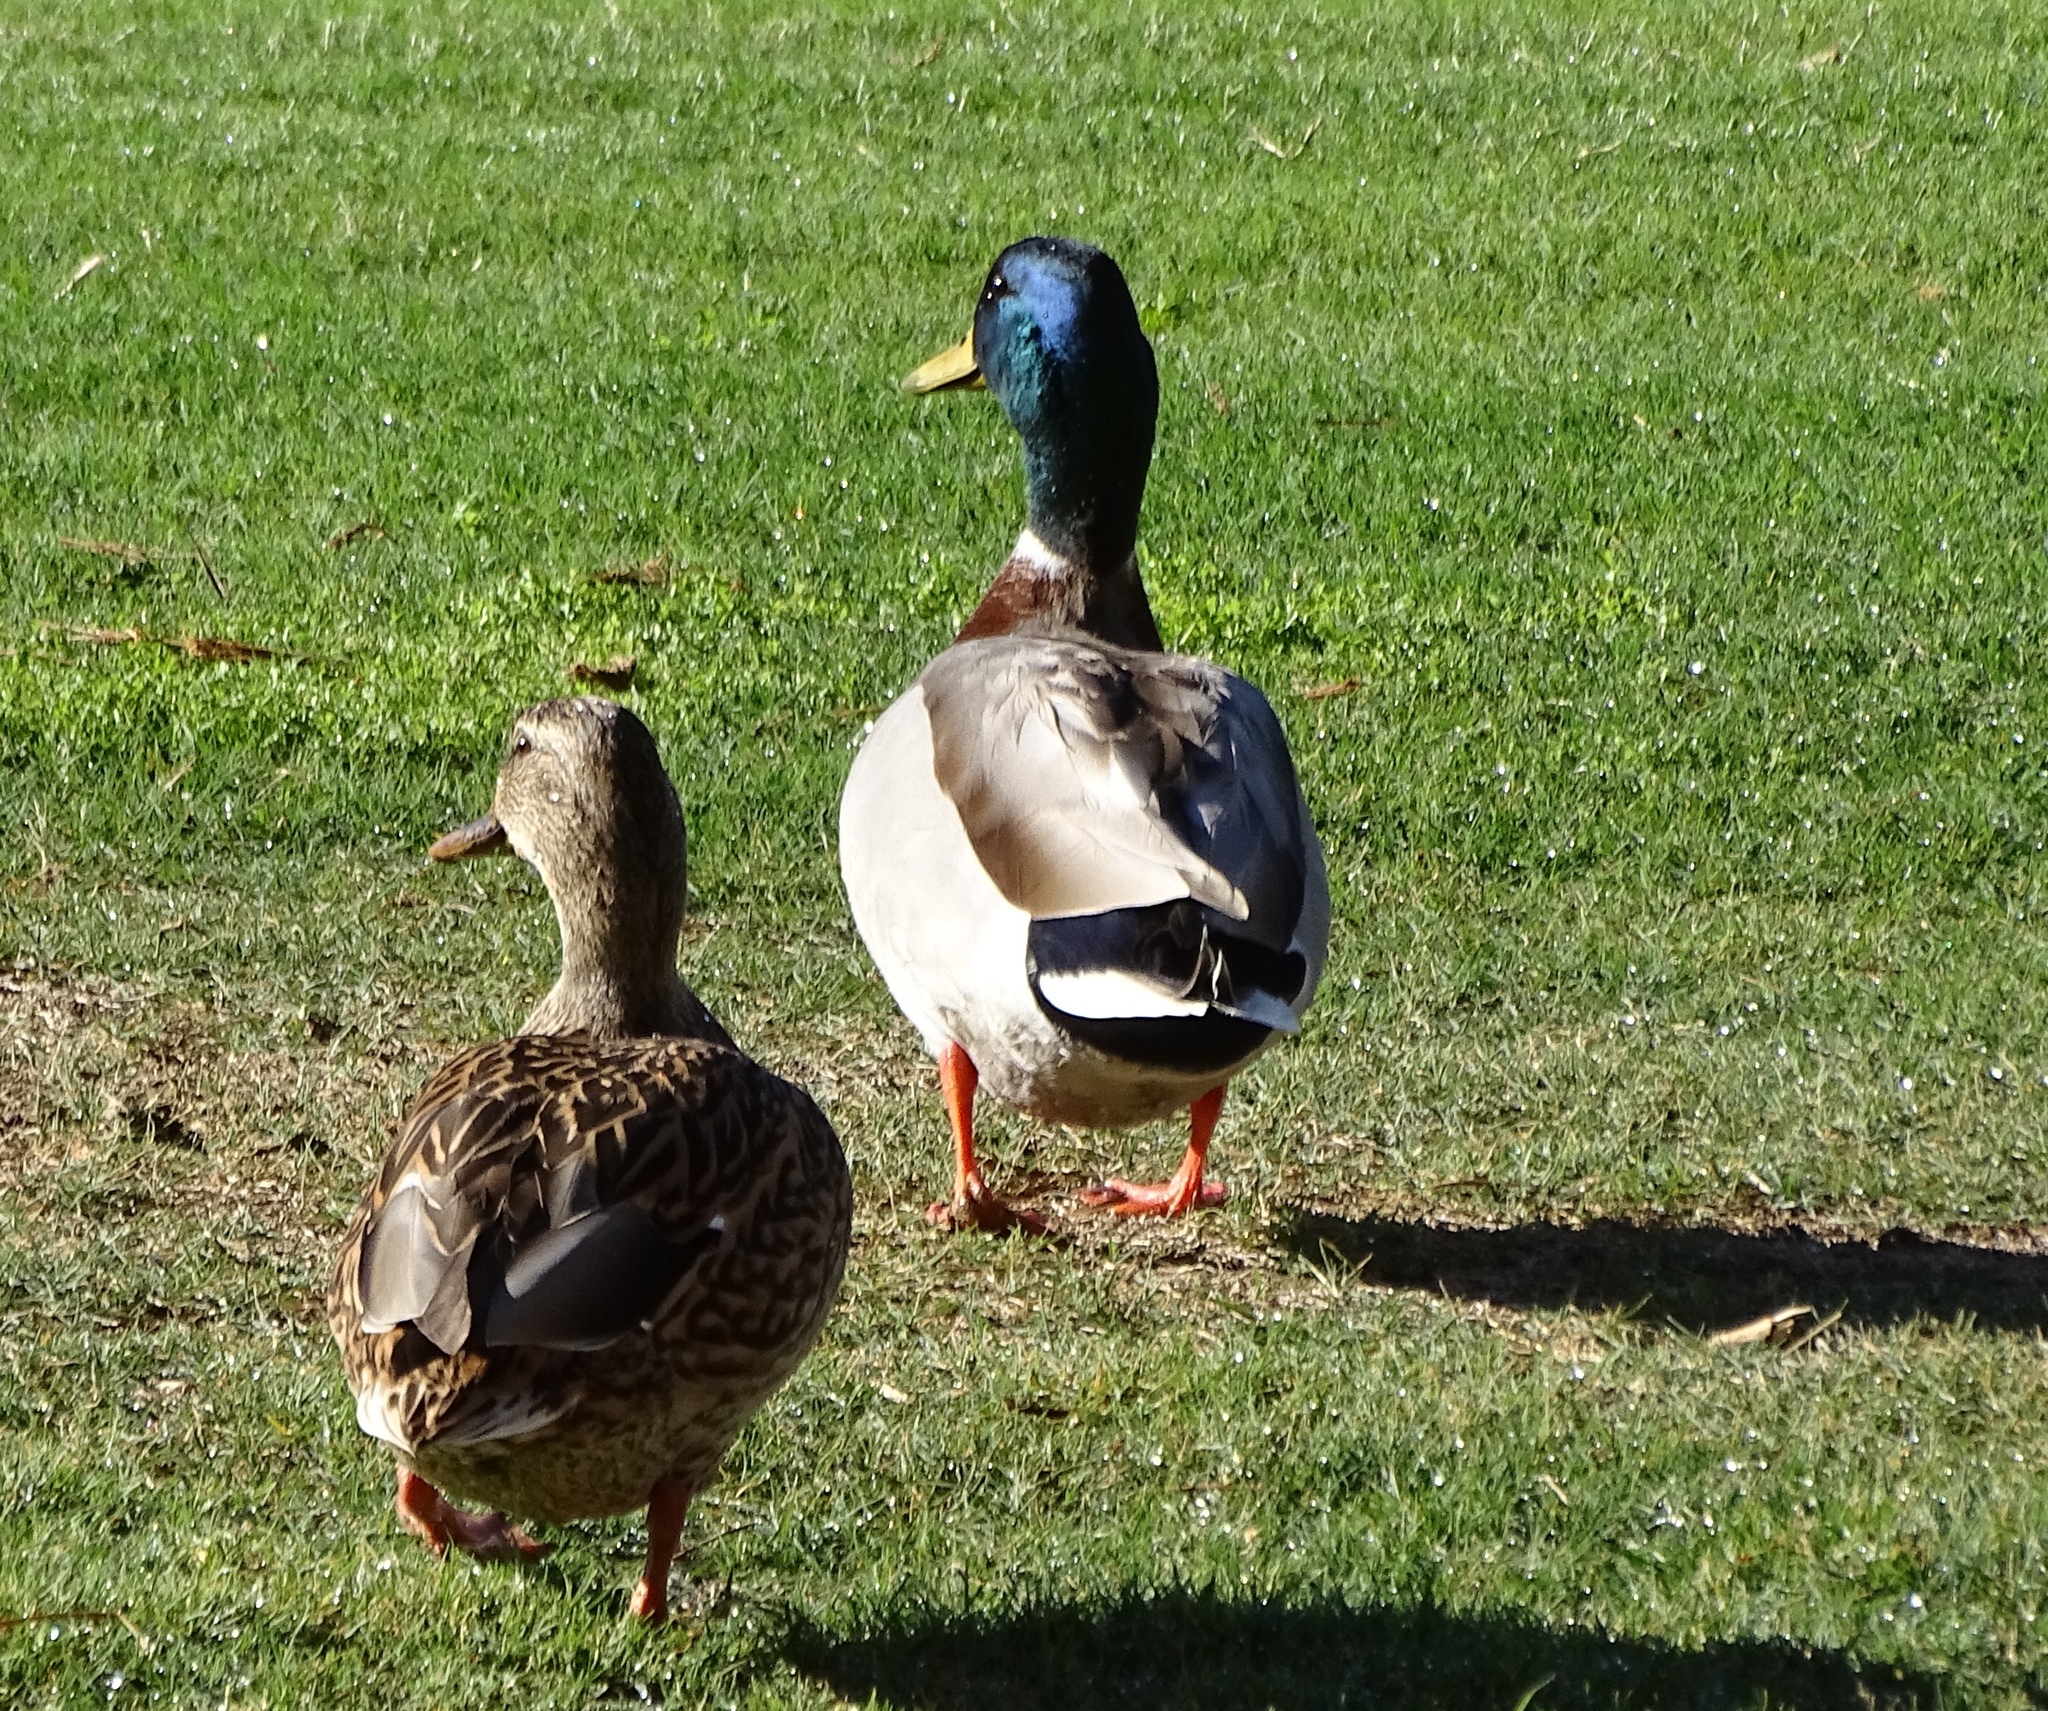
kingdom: Animalia
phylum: Chordata
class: Aves
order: Anseriformes
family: Anatidae
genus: Anas
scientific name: Anas platyrhynchos
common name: Mallard
